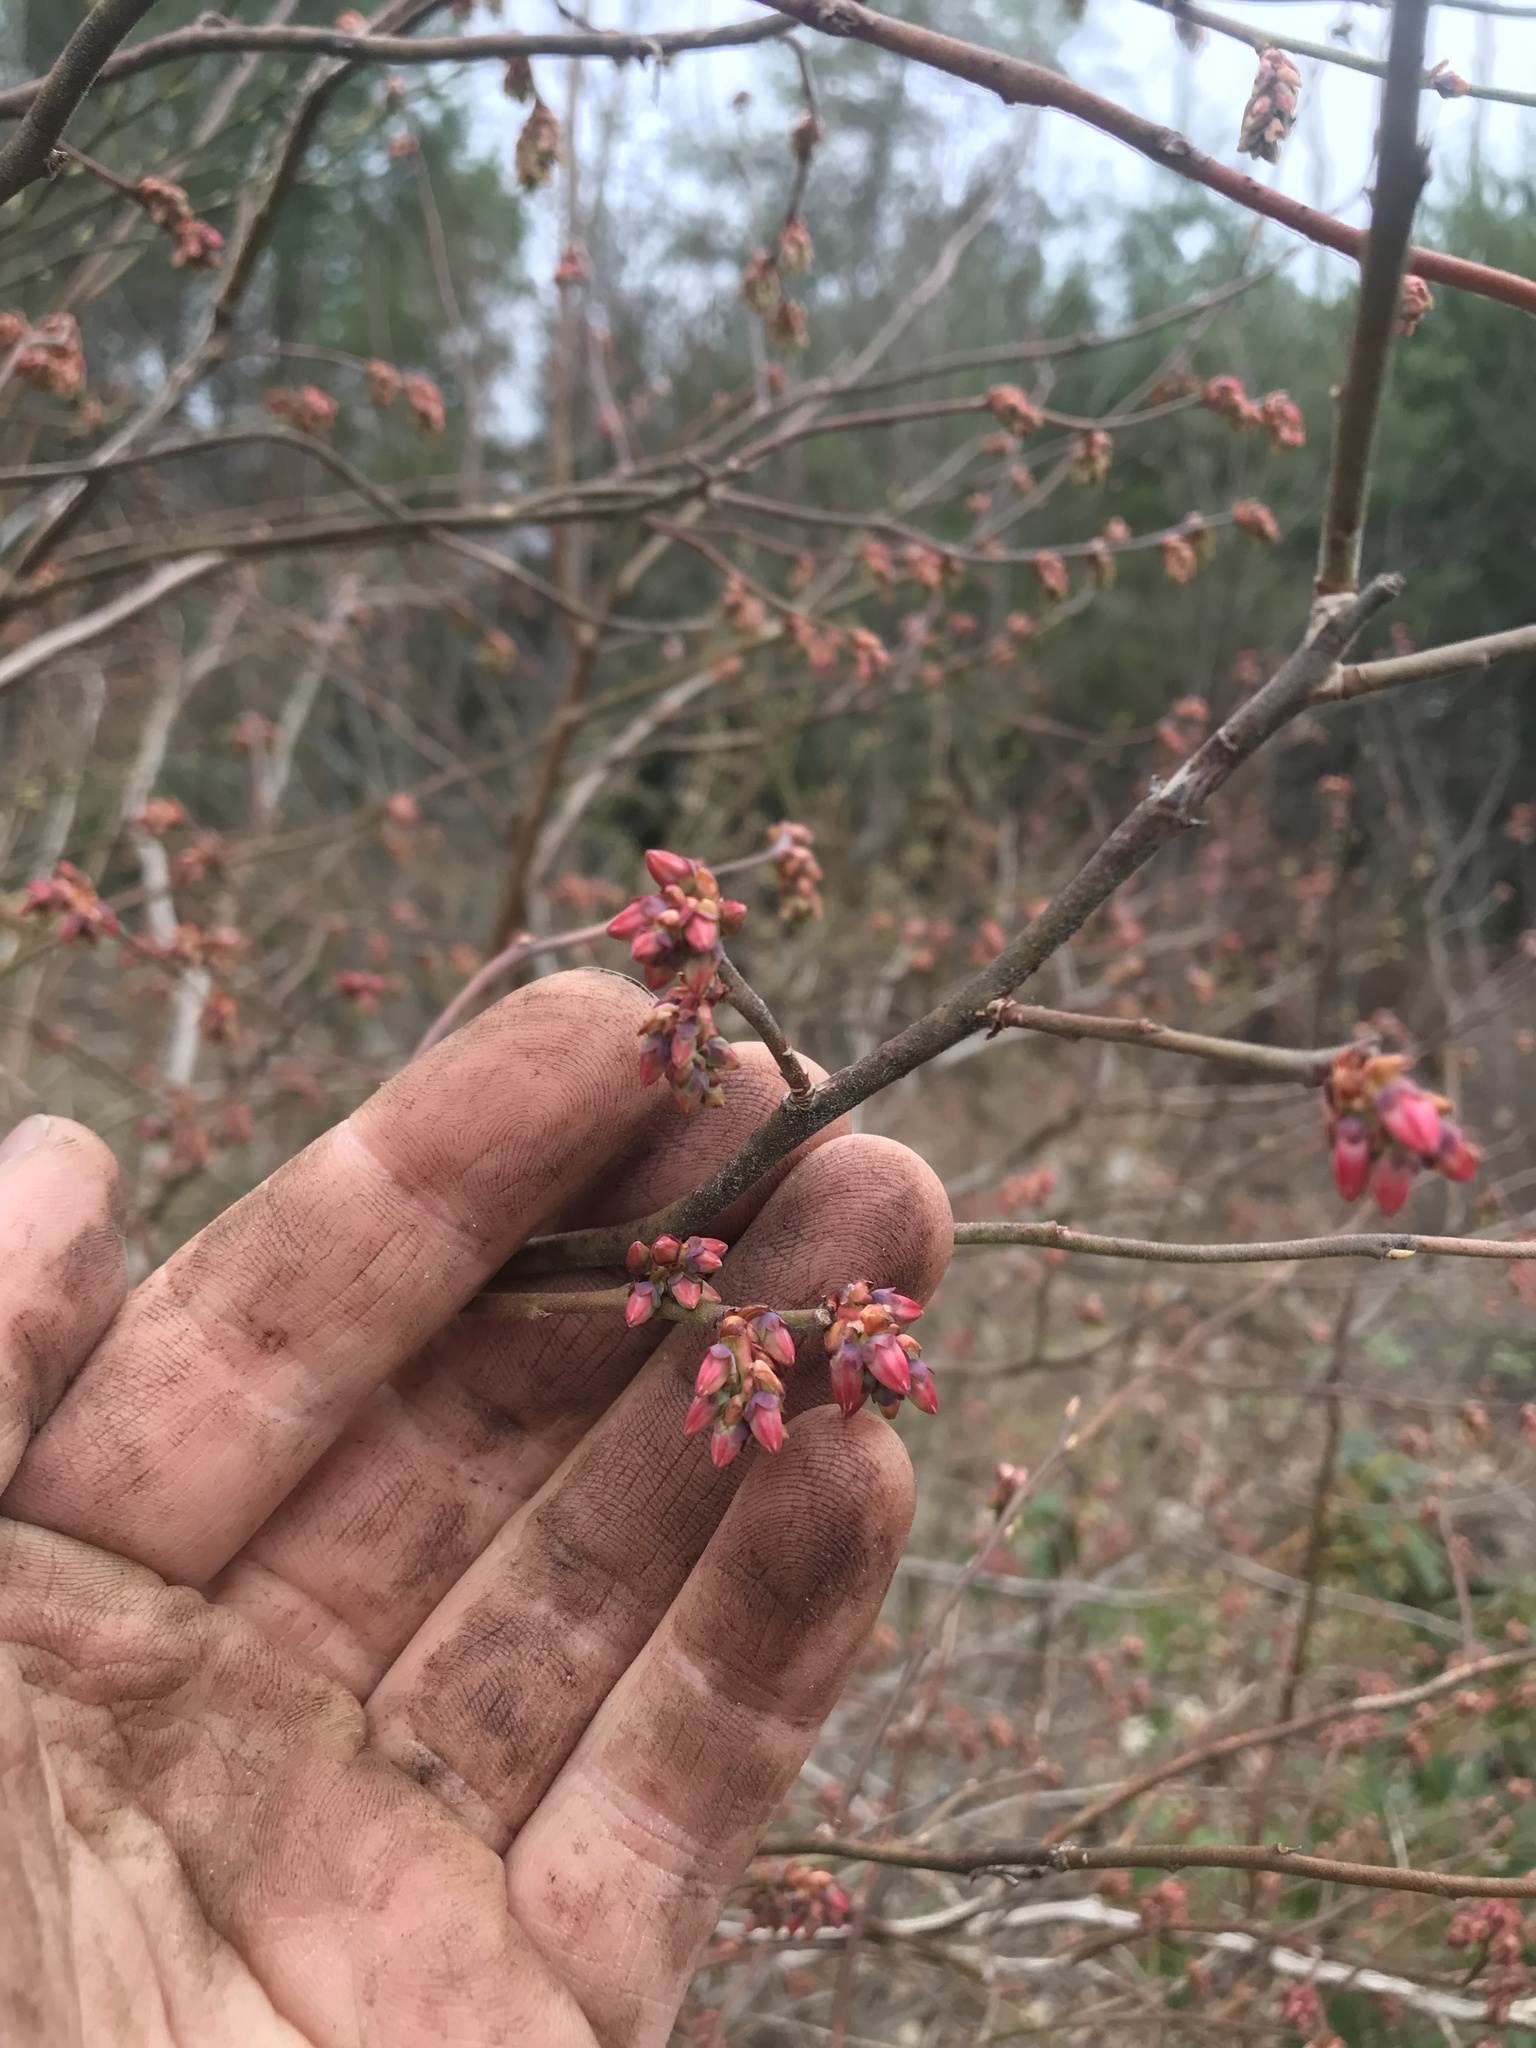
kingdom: Plantae
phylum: Tracheophyta
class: Magnoliopsida
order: Ericales
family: Ericaceae
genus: Vaccinium
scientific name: Vaccinium corymbosum
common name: Blueberry
